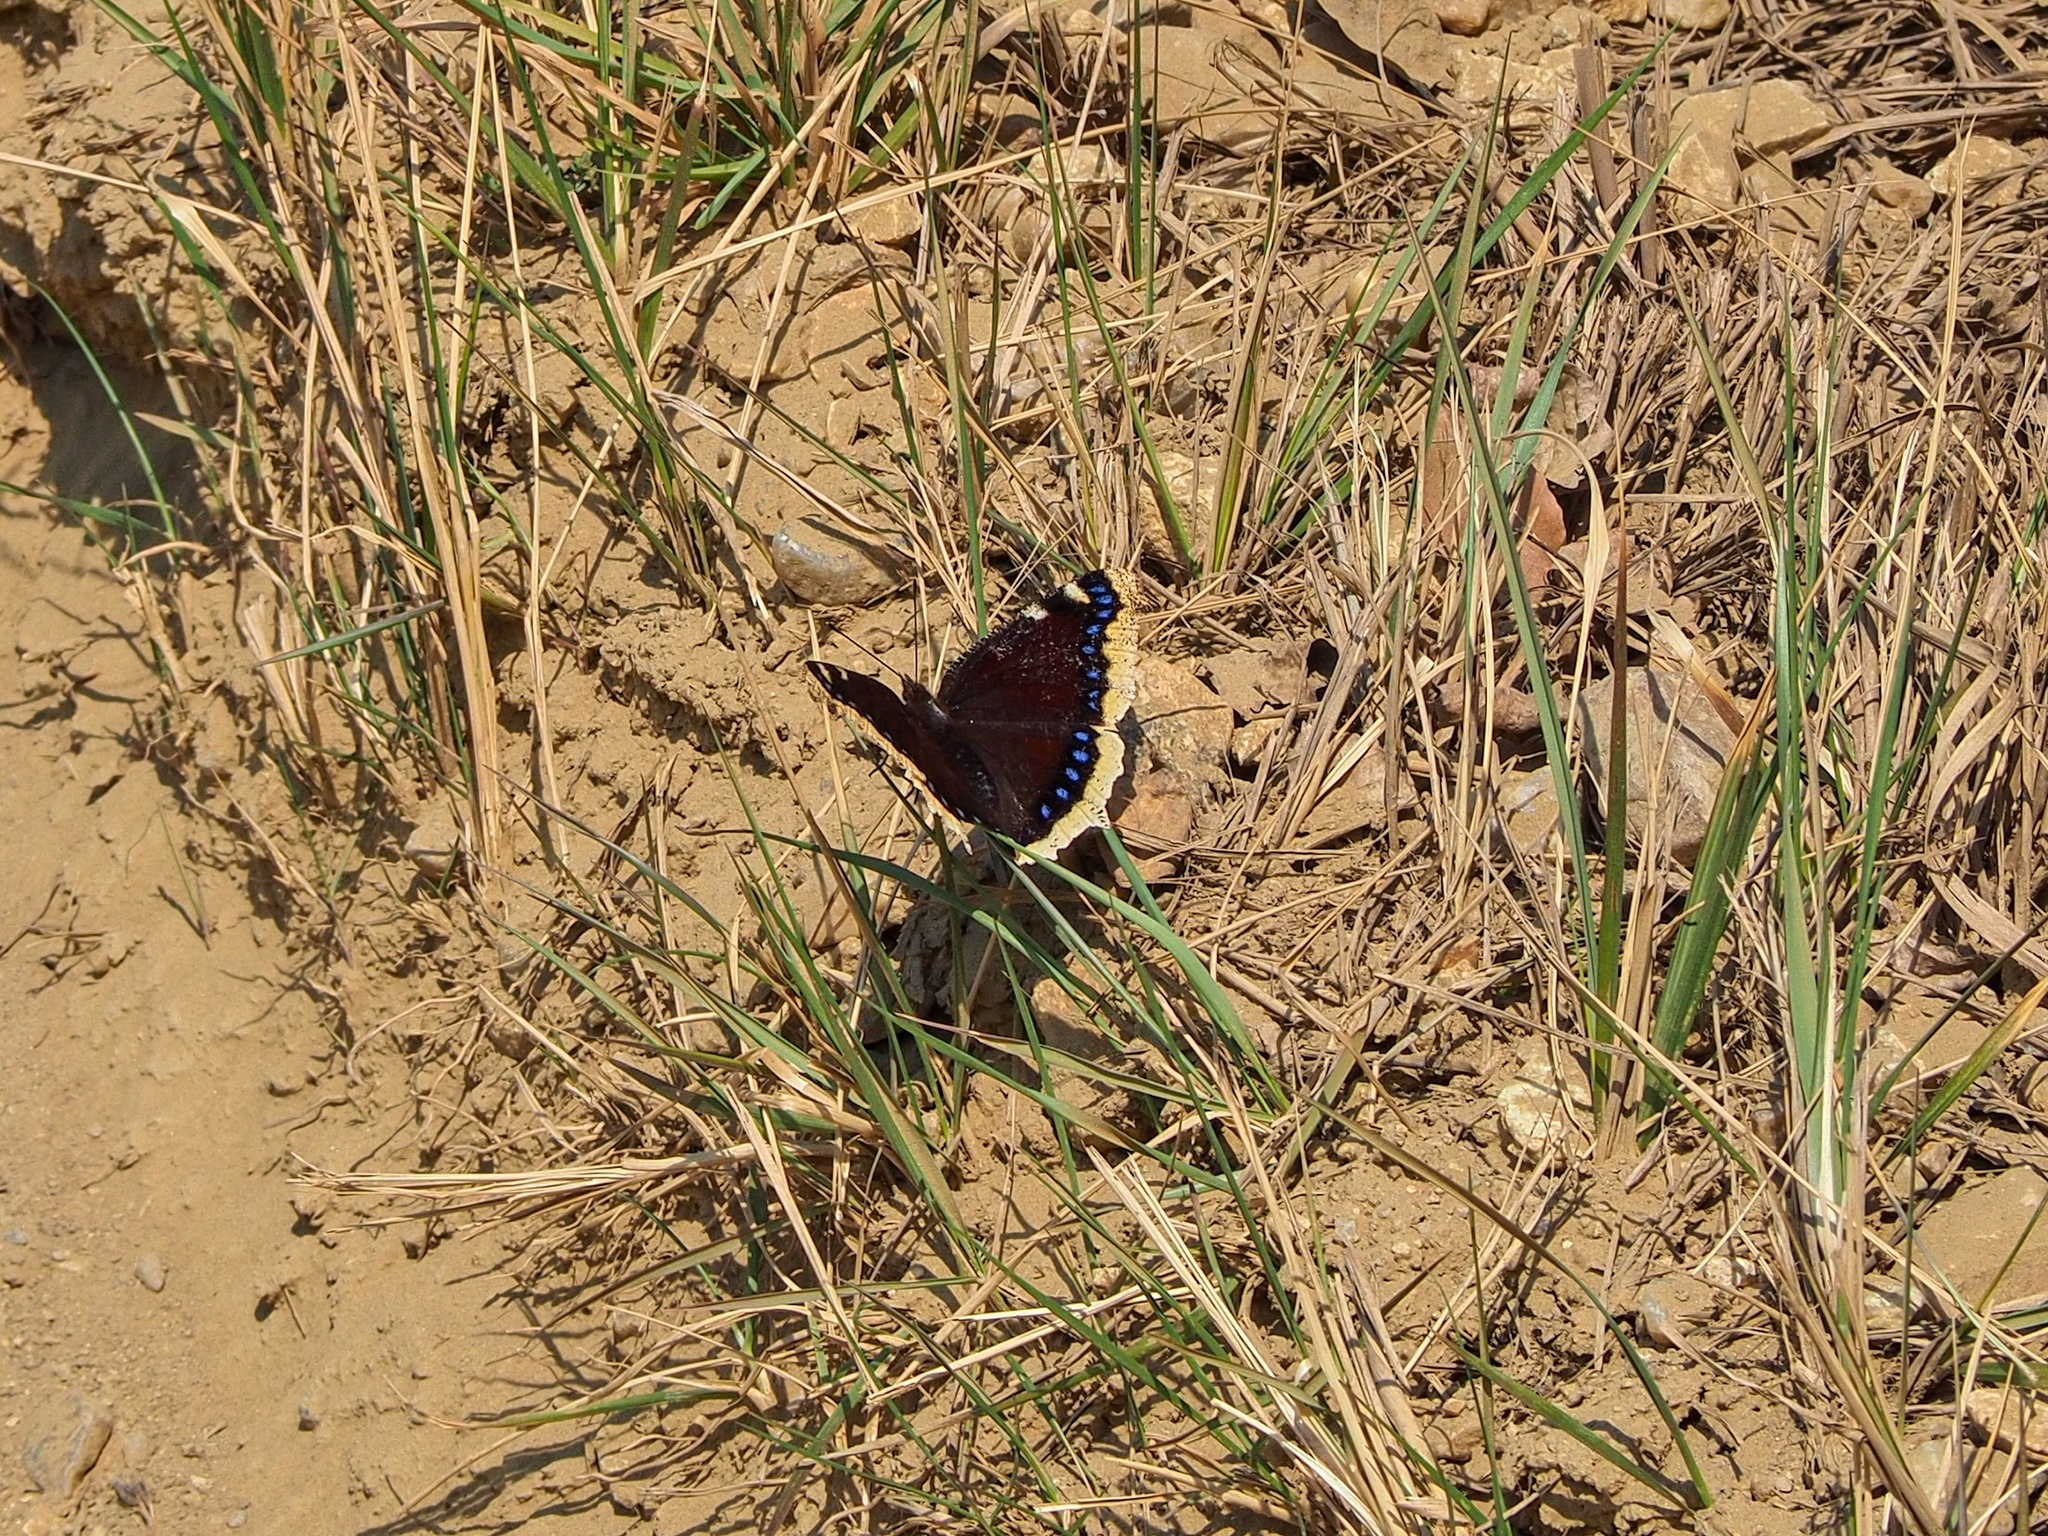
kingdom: Animalia
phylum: Arthropoda
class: Insecta
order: Lepidoptera
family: Nymphalidae
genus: Nymphalis
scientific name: Nymphalis antiopa
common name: Camberwell beauty
